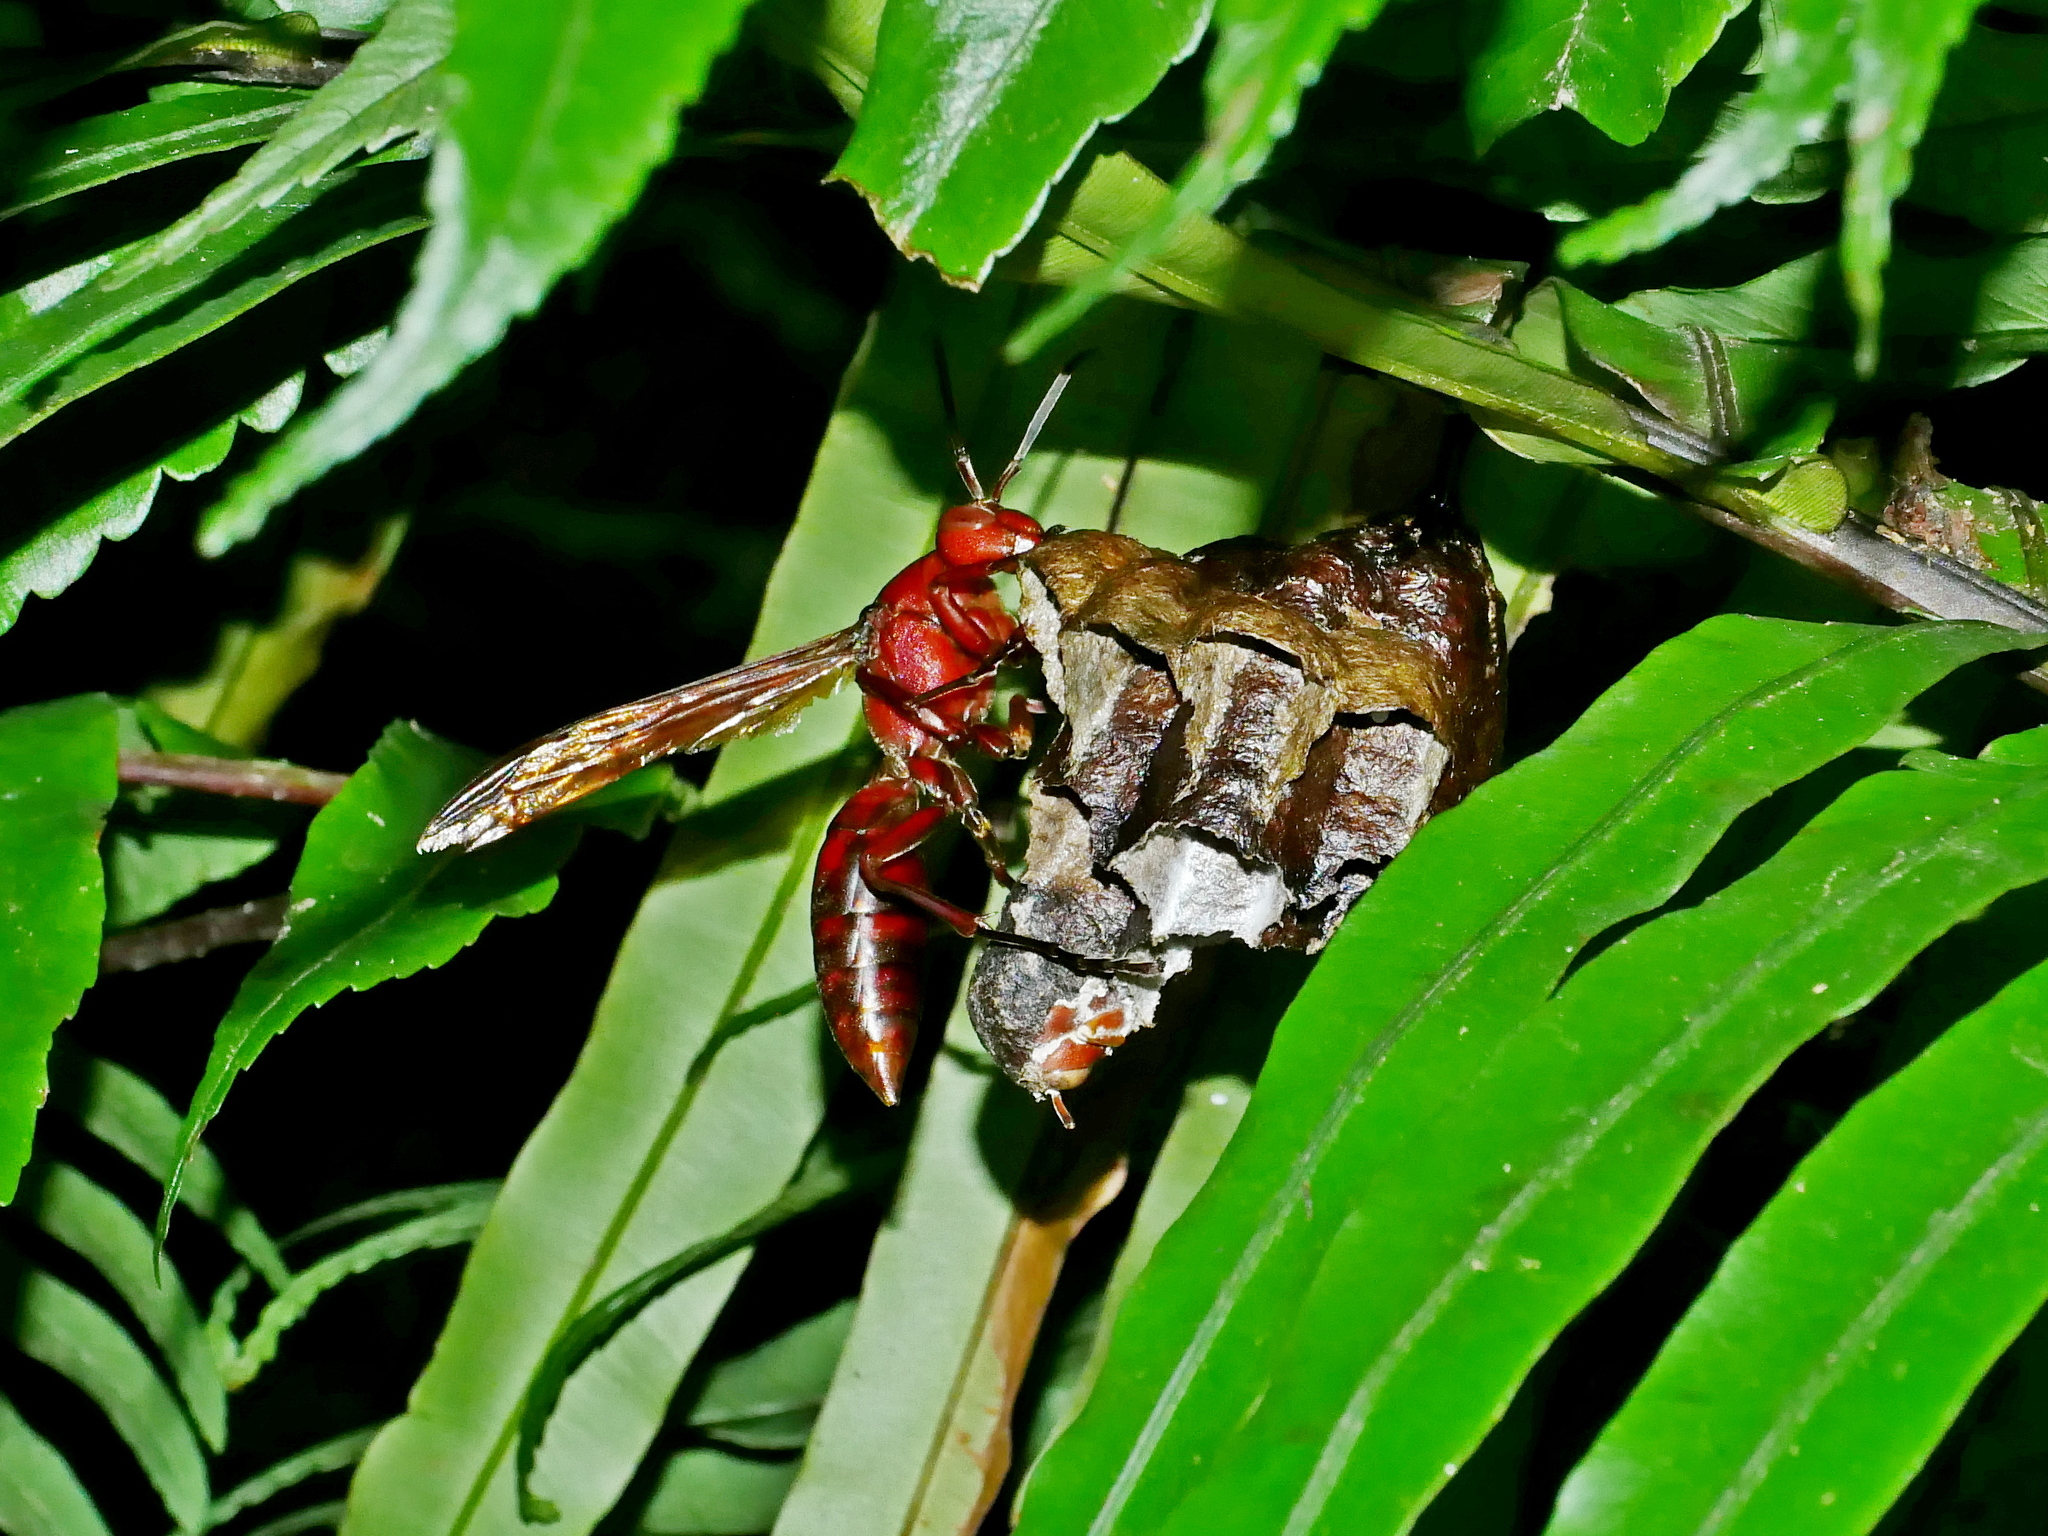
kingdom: Animalia
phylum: Arthropoda
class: Insecta
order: Hymenoptera
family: Eumenidae
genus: Polistes
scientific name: Polistes gigas
